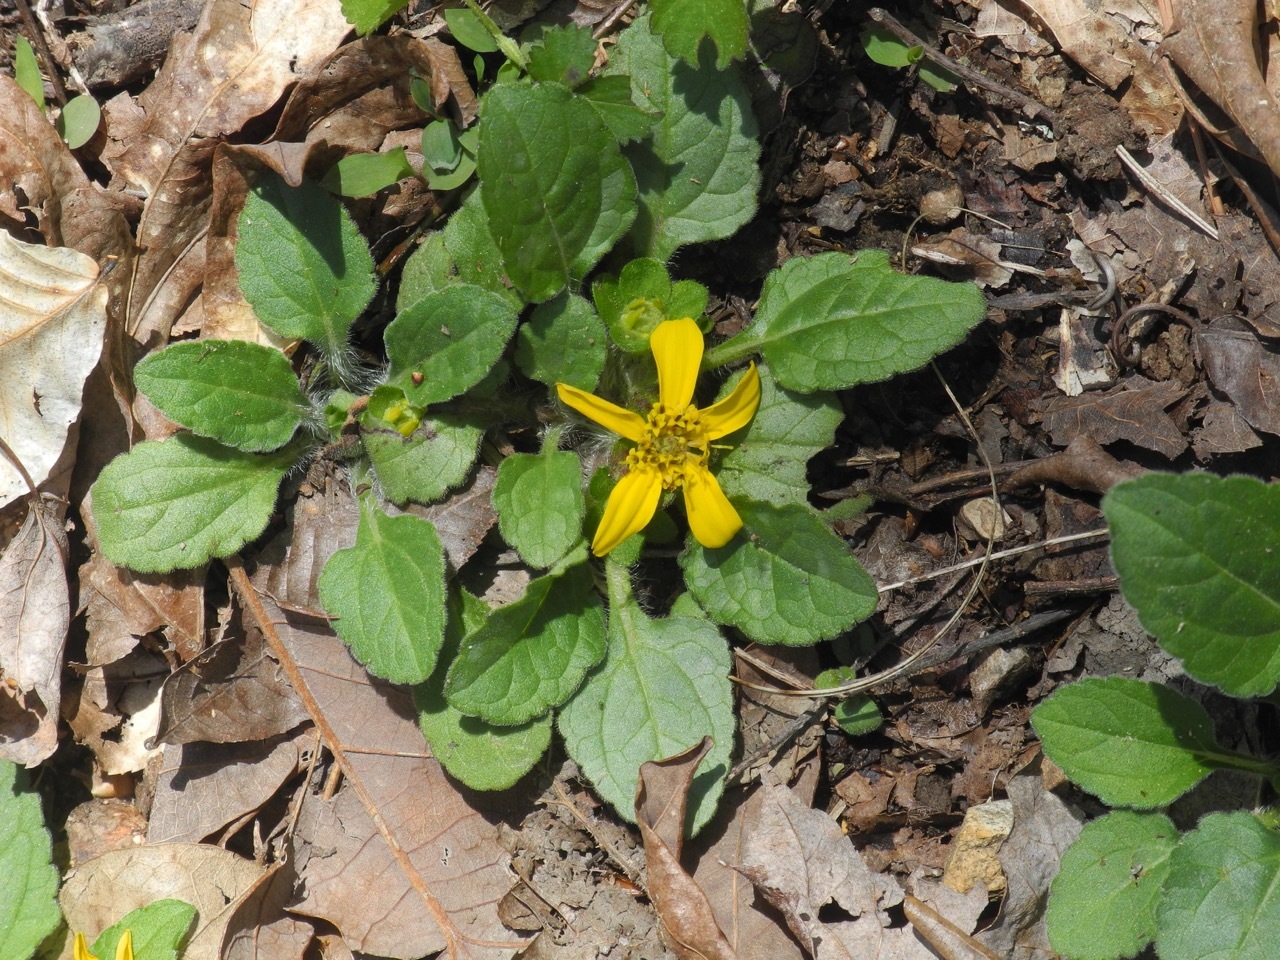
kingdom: Plantae
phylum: Tracheophyta
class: Magnoliopsida
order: Asterales
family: Asteraceae
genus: Chrysogonum
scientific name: Chrysogonum virginianum
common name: Golden-knee
